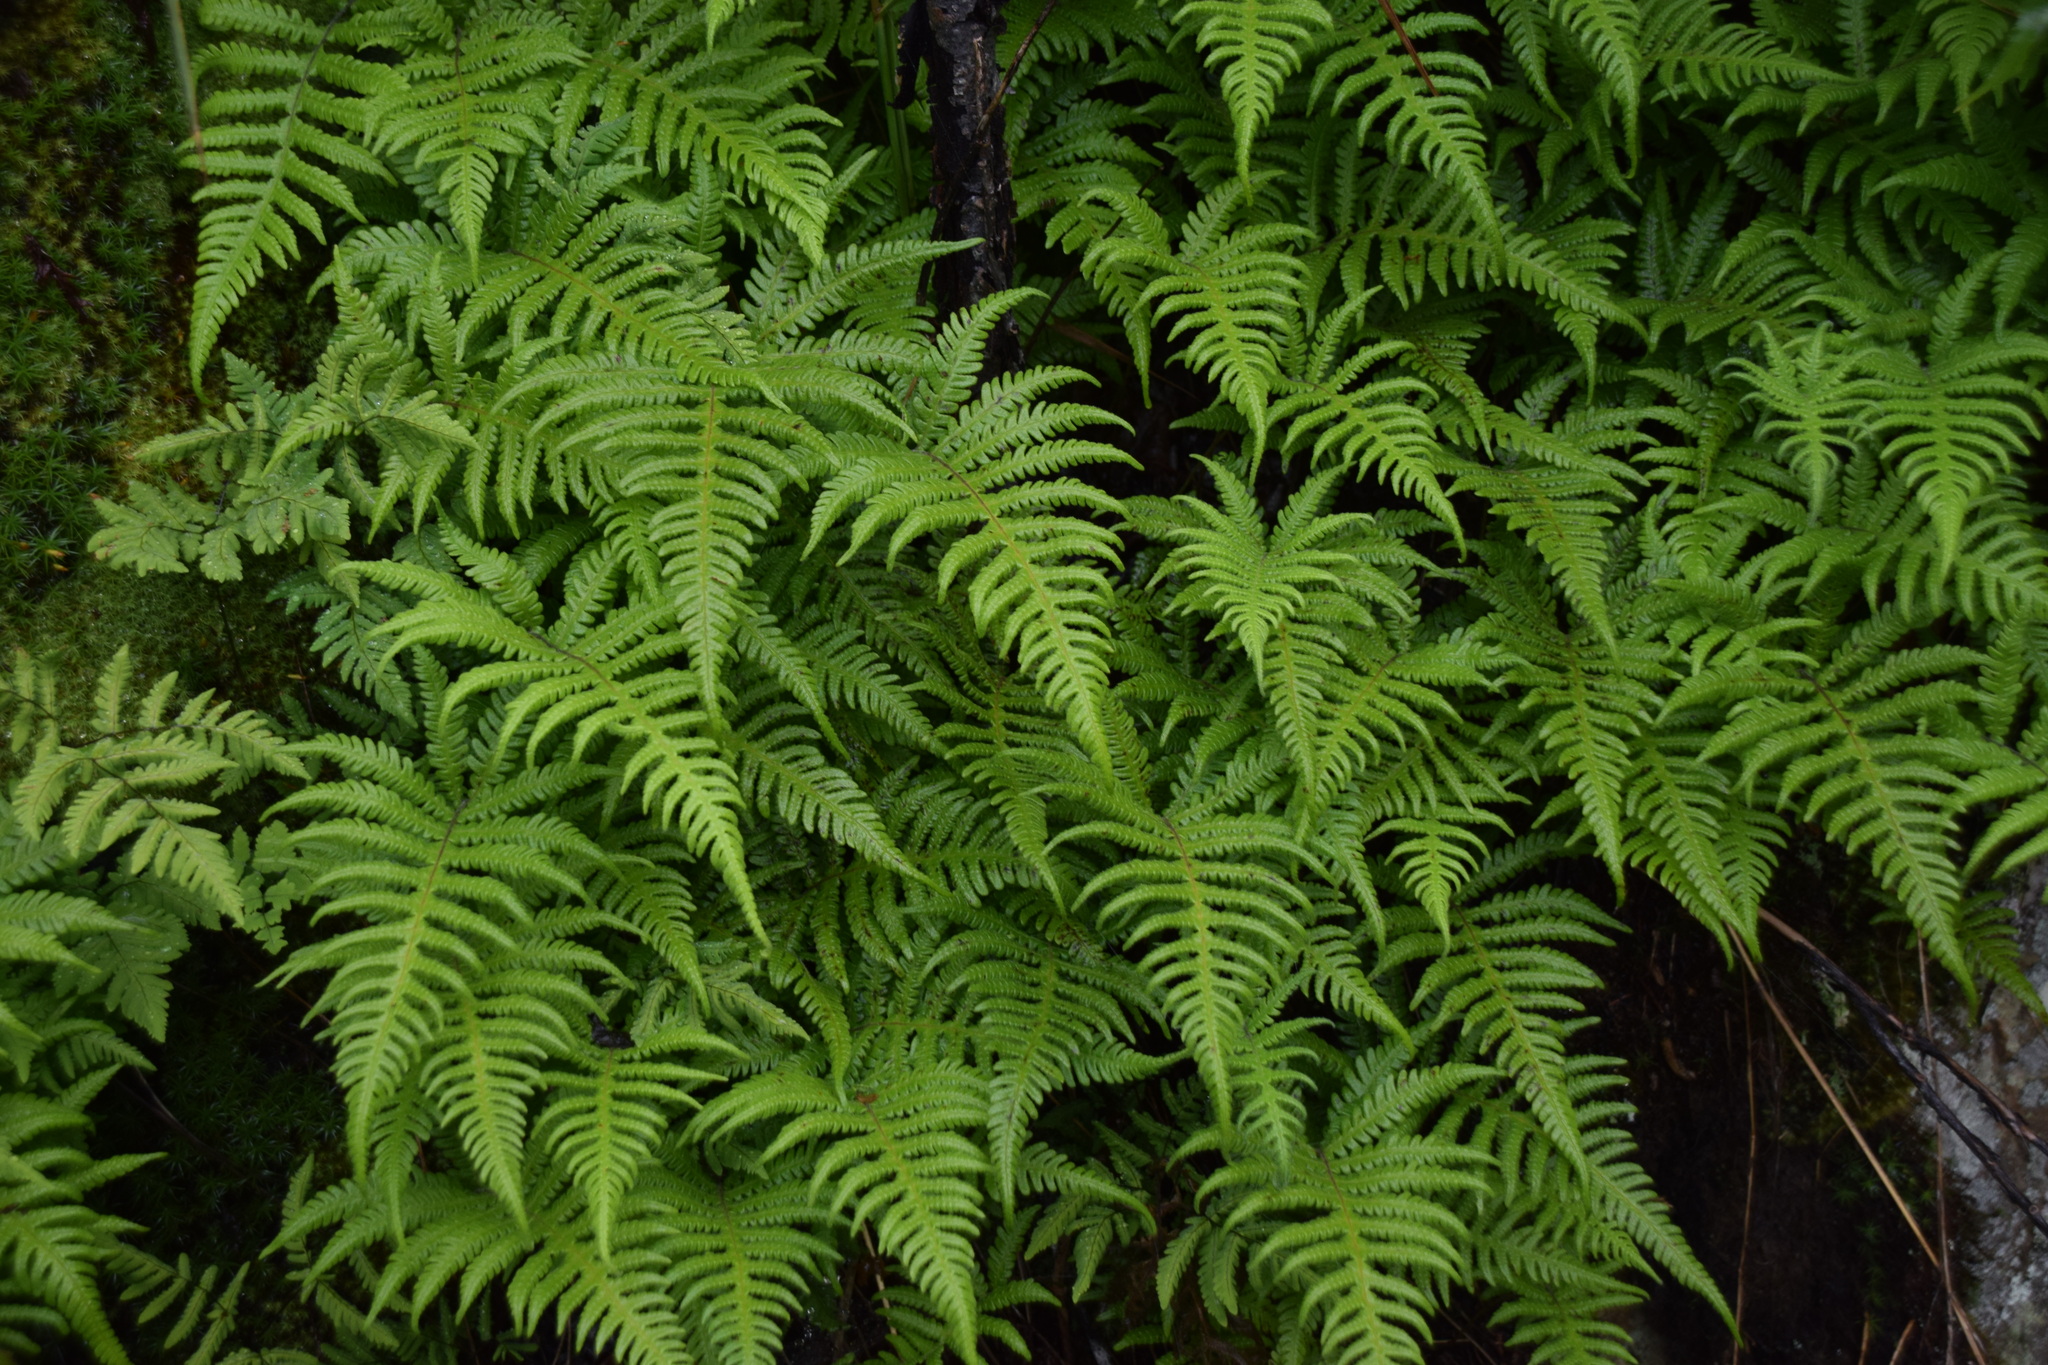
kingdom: Plantae
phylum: Tracheophyta
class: Polypodiopsida
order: Polypodiales
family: Thelypteridaceae
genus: Phegopteris
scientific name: Phegopteris connectilis
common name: Beech fern
